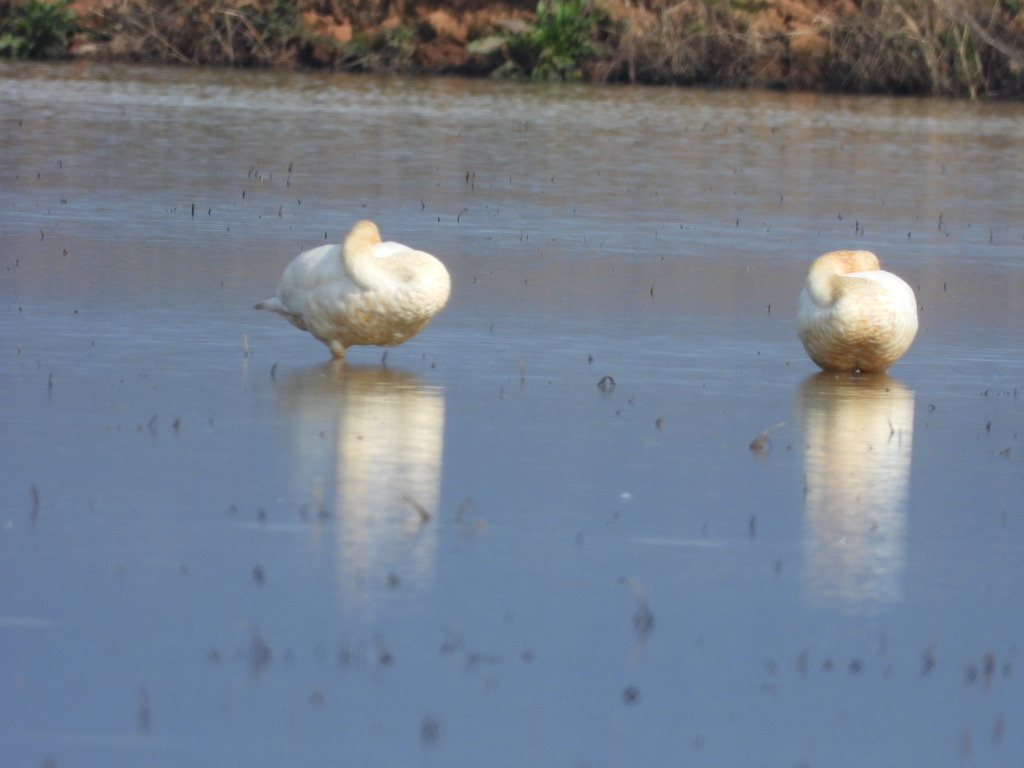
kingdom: Animalia
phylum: Chordata
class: Aves
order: Anseriformes
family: Anatidae
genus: Cygnus
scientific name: Cygnus columbianus
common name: Tundra swan
